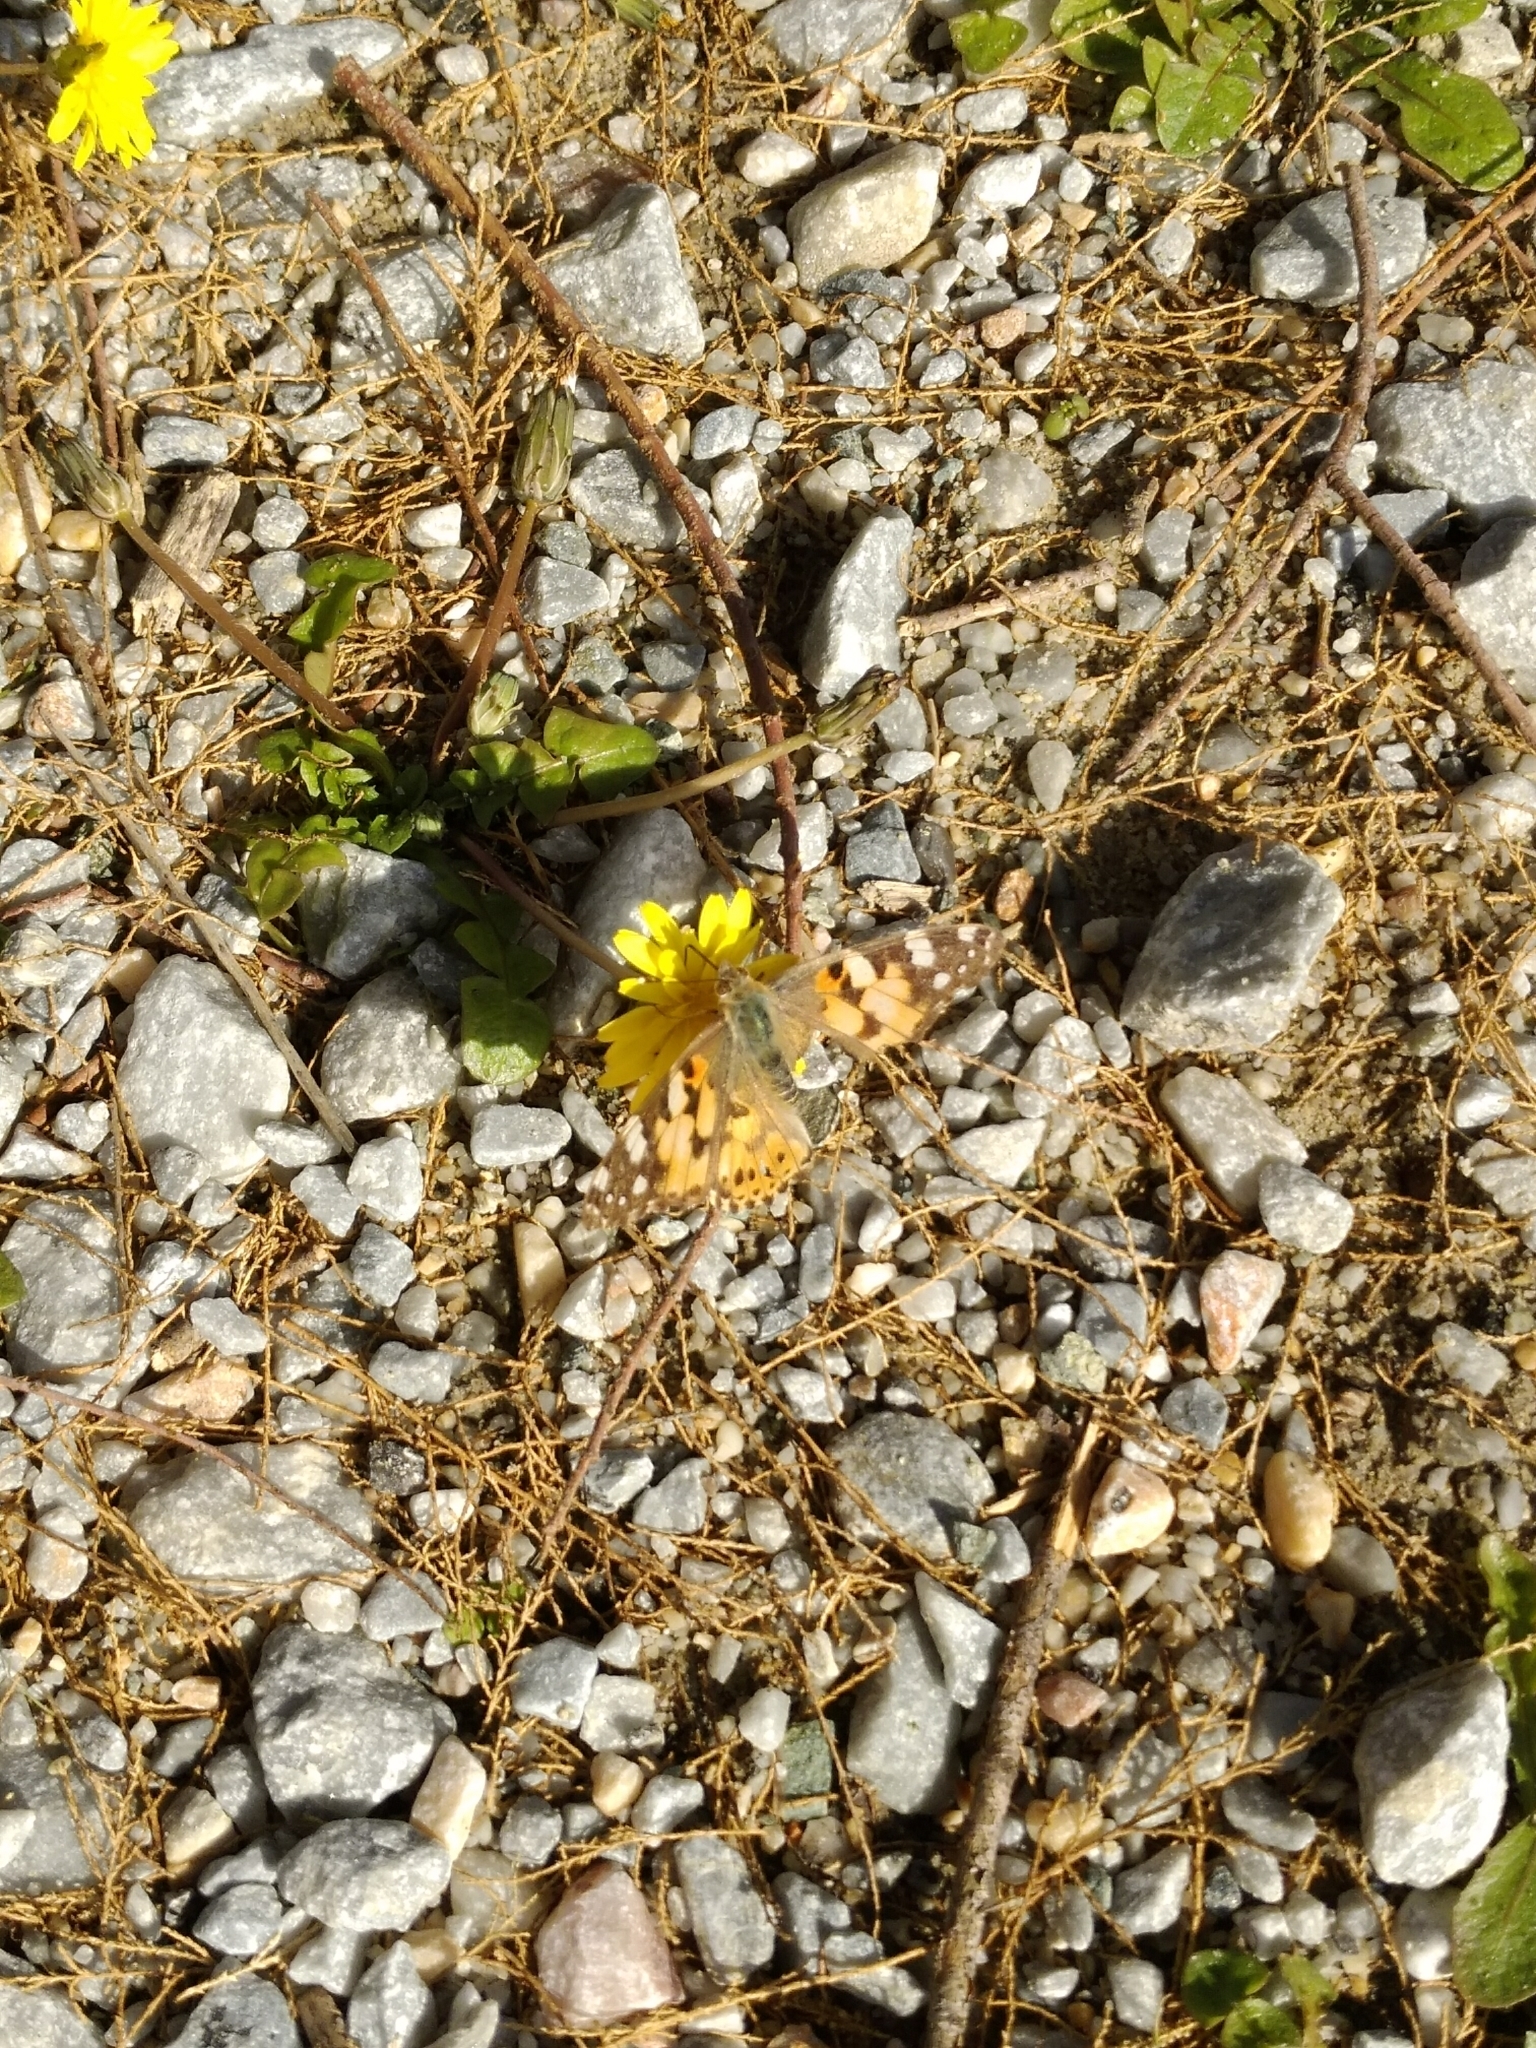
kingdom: Animalia
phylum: Arthropoda
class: Insecta
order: Lepidoptera
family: Nymphalidae
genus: Vanessa
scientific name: Vanessa cardui
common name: Painted lady
